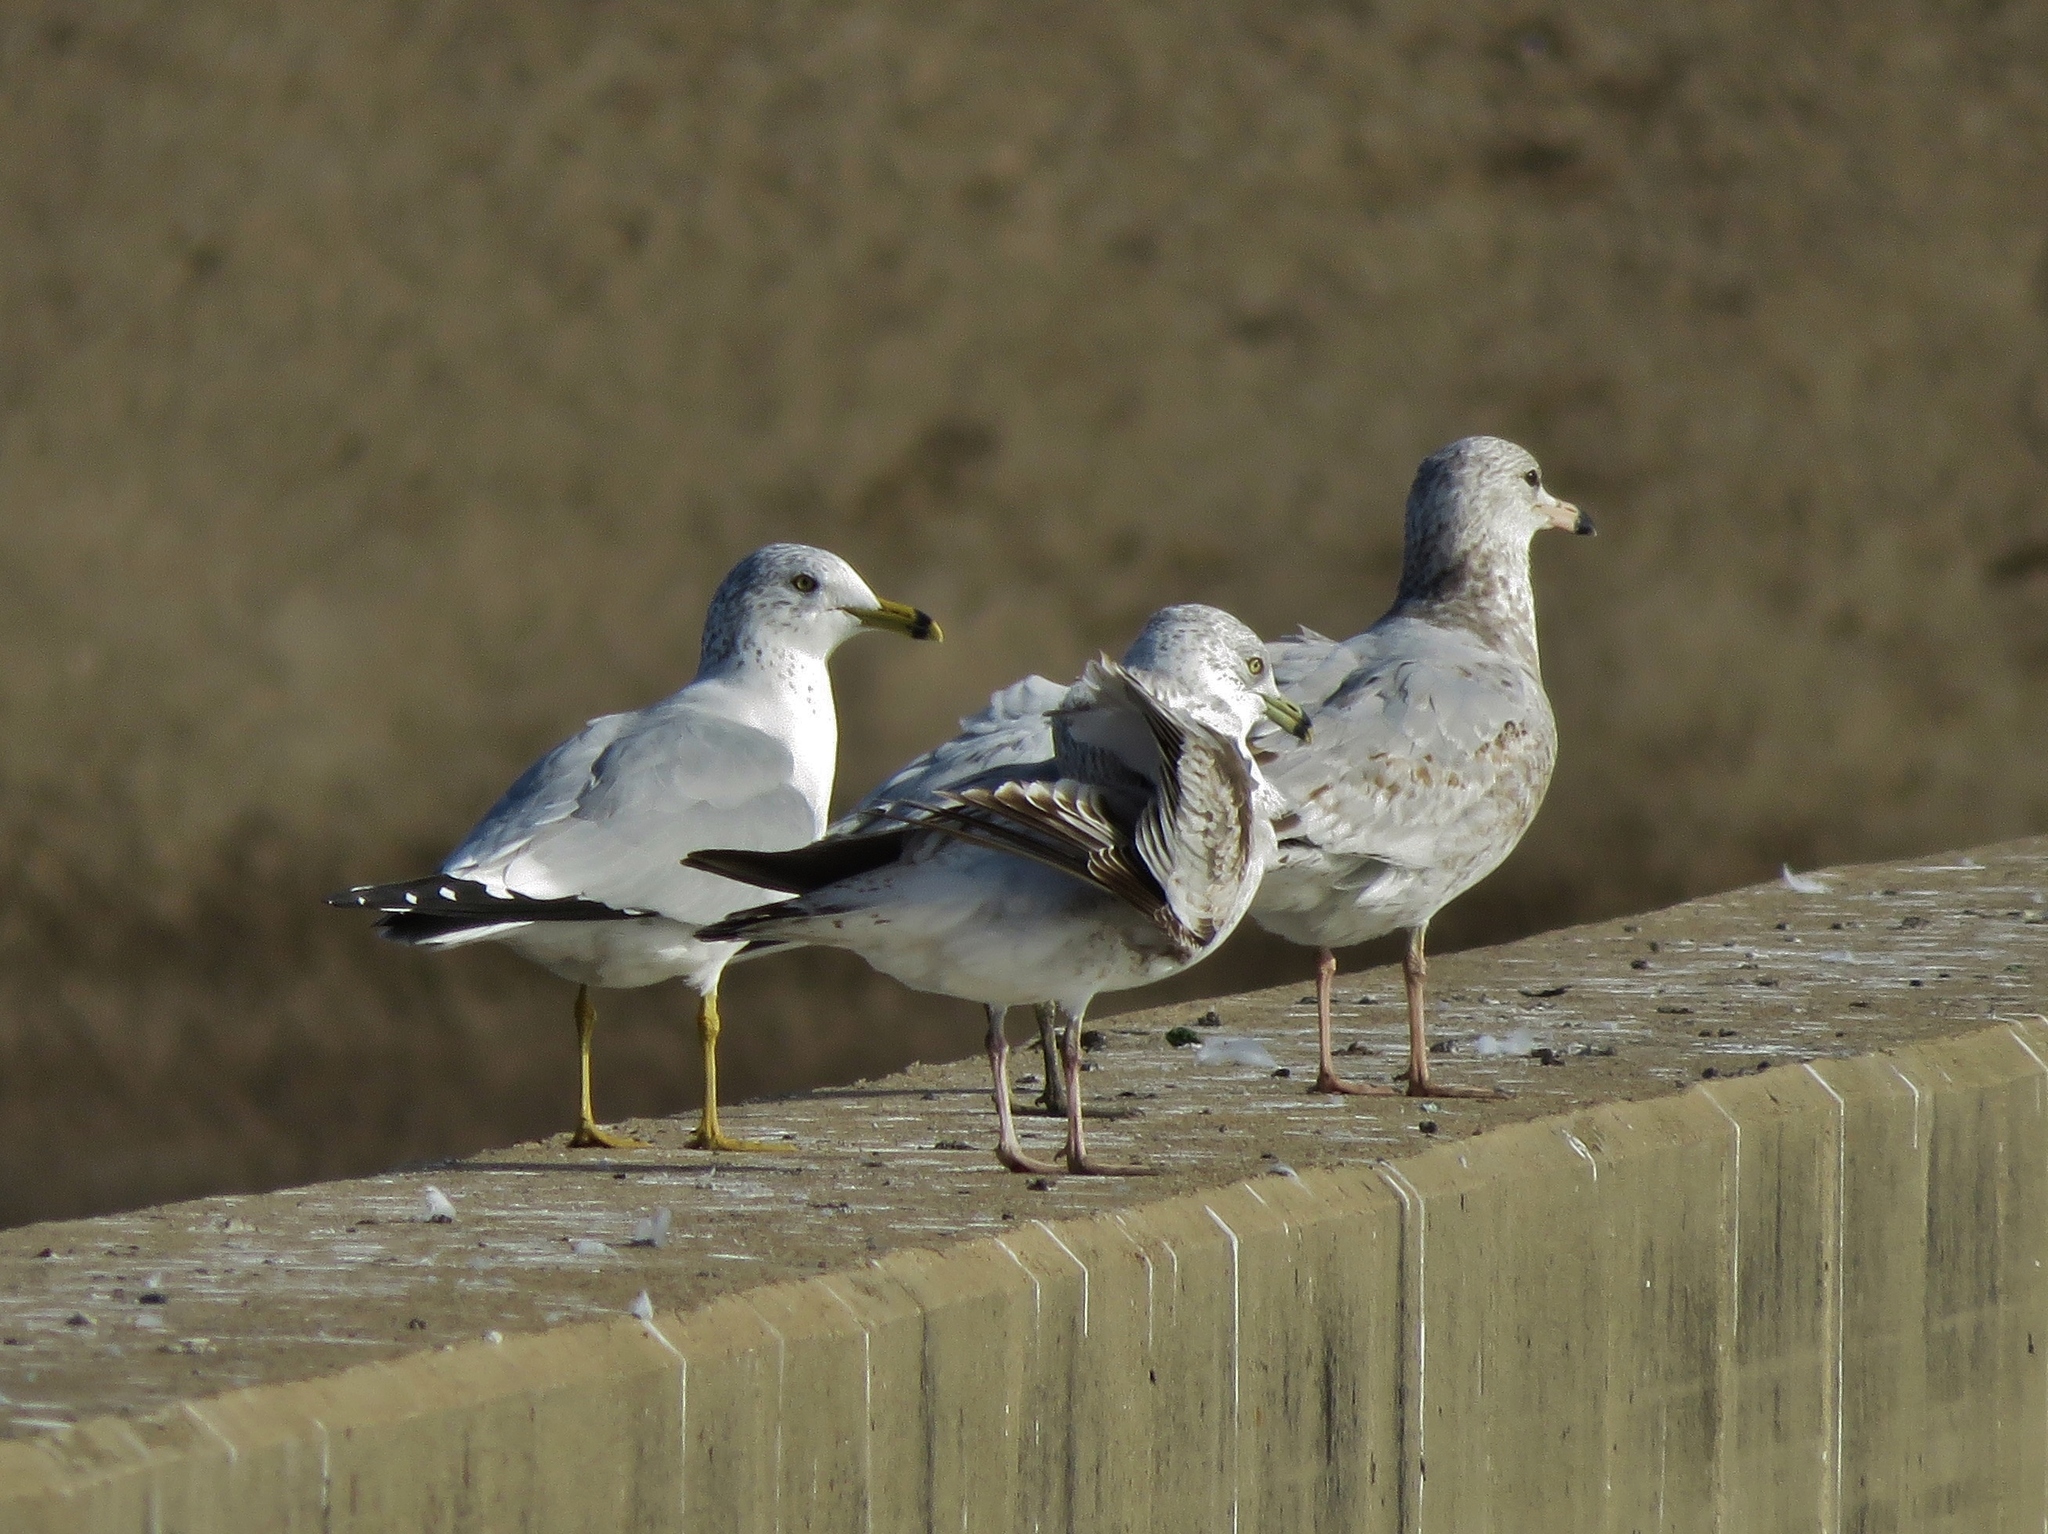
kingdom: Animalia
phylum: Chordata
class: Aves
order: Charadriiformes
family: Laridae
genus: Larus
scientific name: Larus delawarensis
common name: Ring-billed gull
